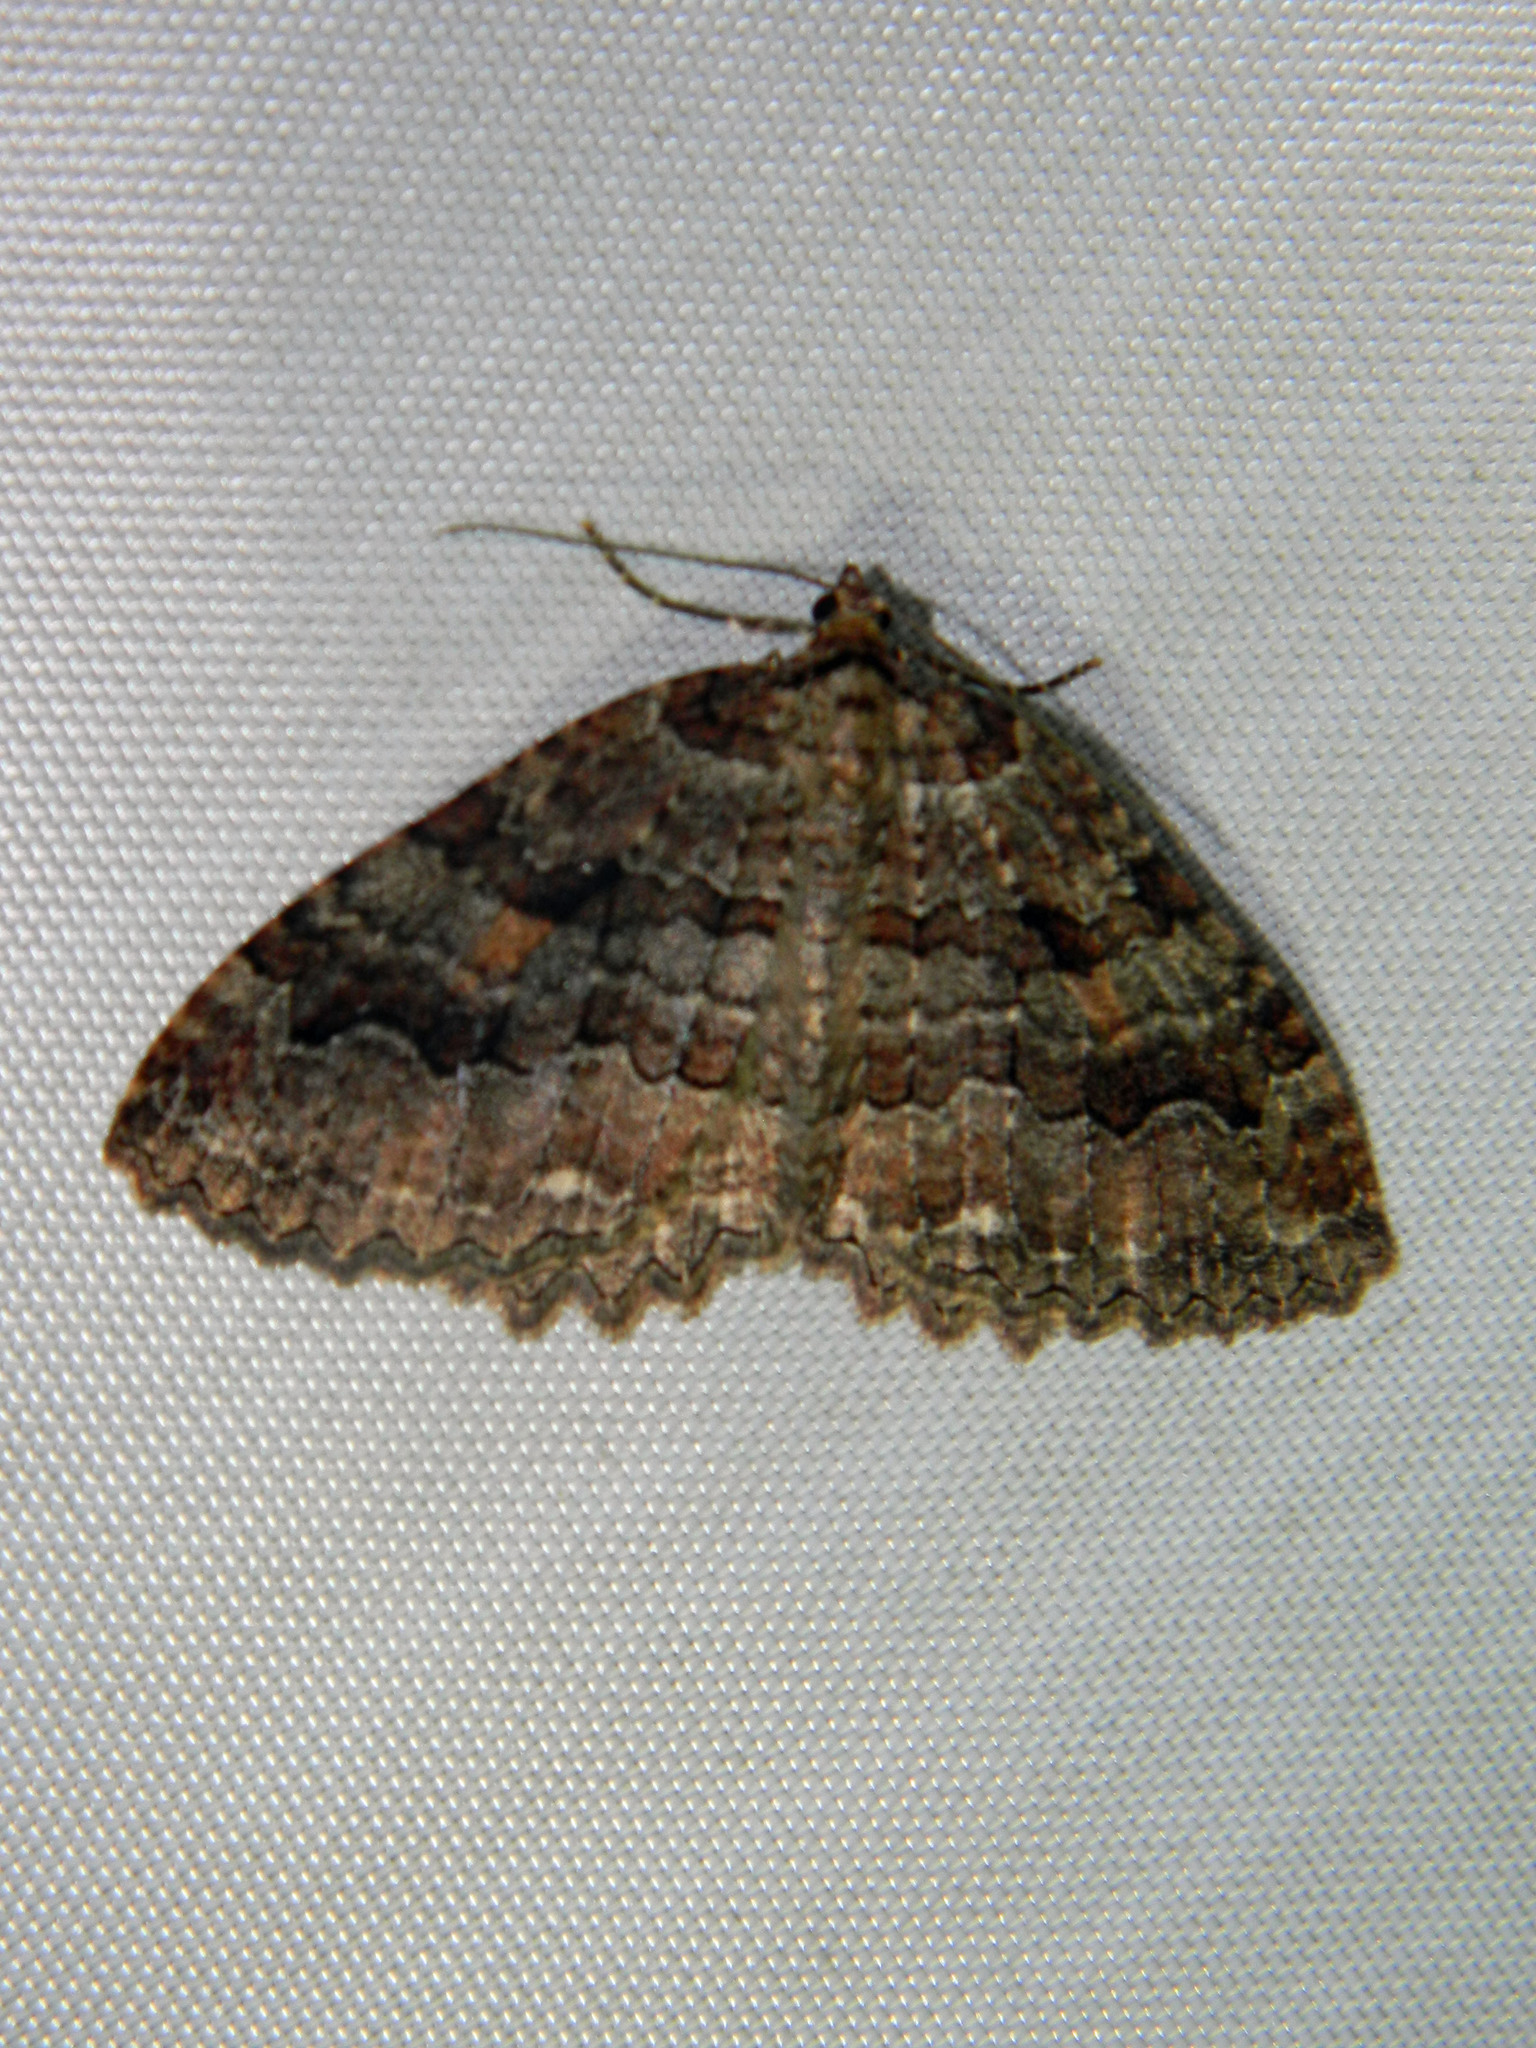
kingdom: Animalia
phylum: Arthropoda
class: Insecta
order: Lepidoptera
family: Geometridae
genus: Triphosa
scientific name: Triphosa haesitata
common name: Tissue moth
